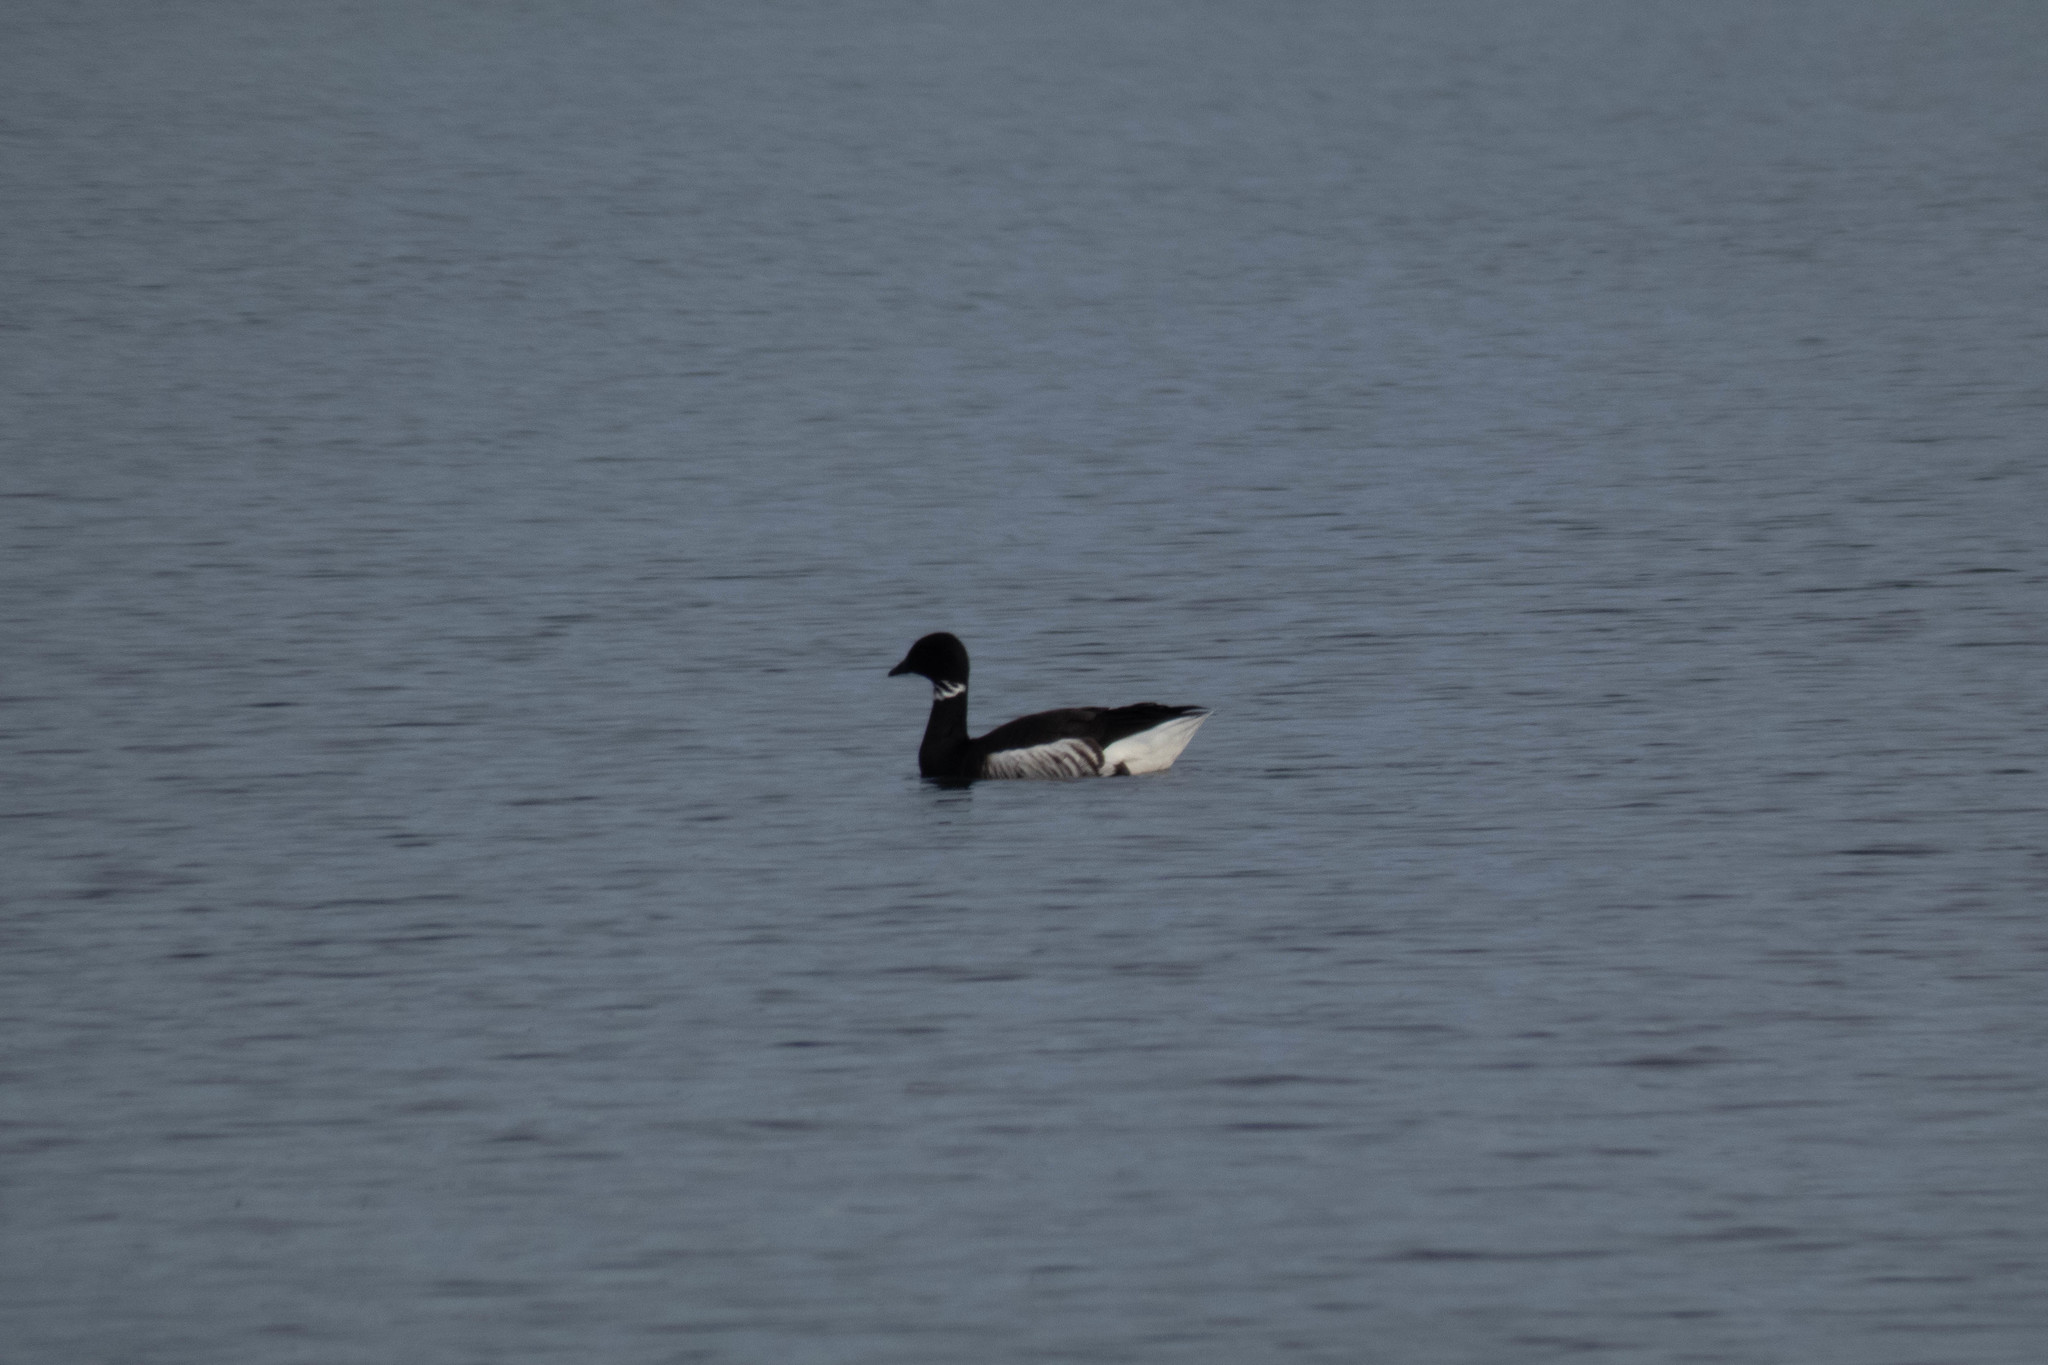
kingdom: Animalia
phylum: Chordata
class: Aves
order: Anseriformes
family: Anatidae
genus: Branta
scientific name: Branta bernicla
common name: Brant goose
